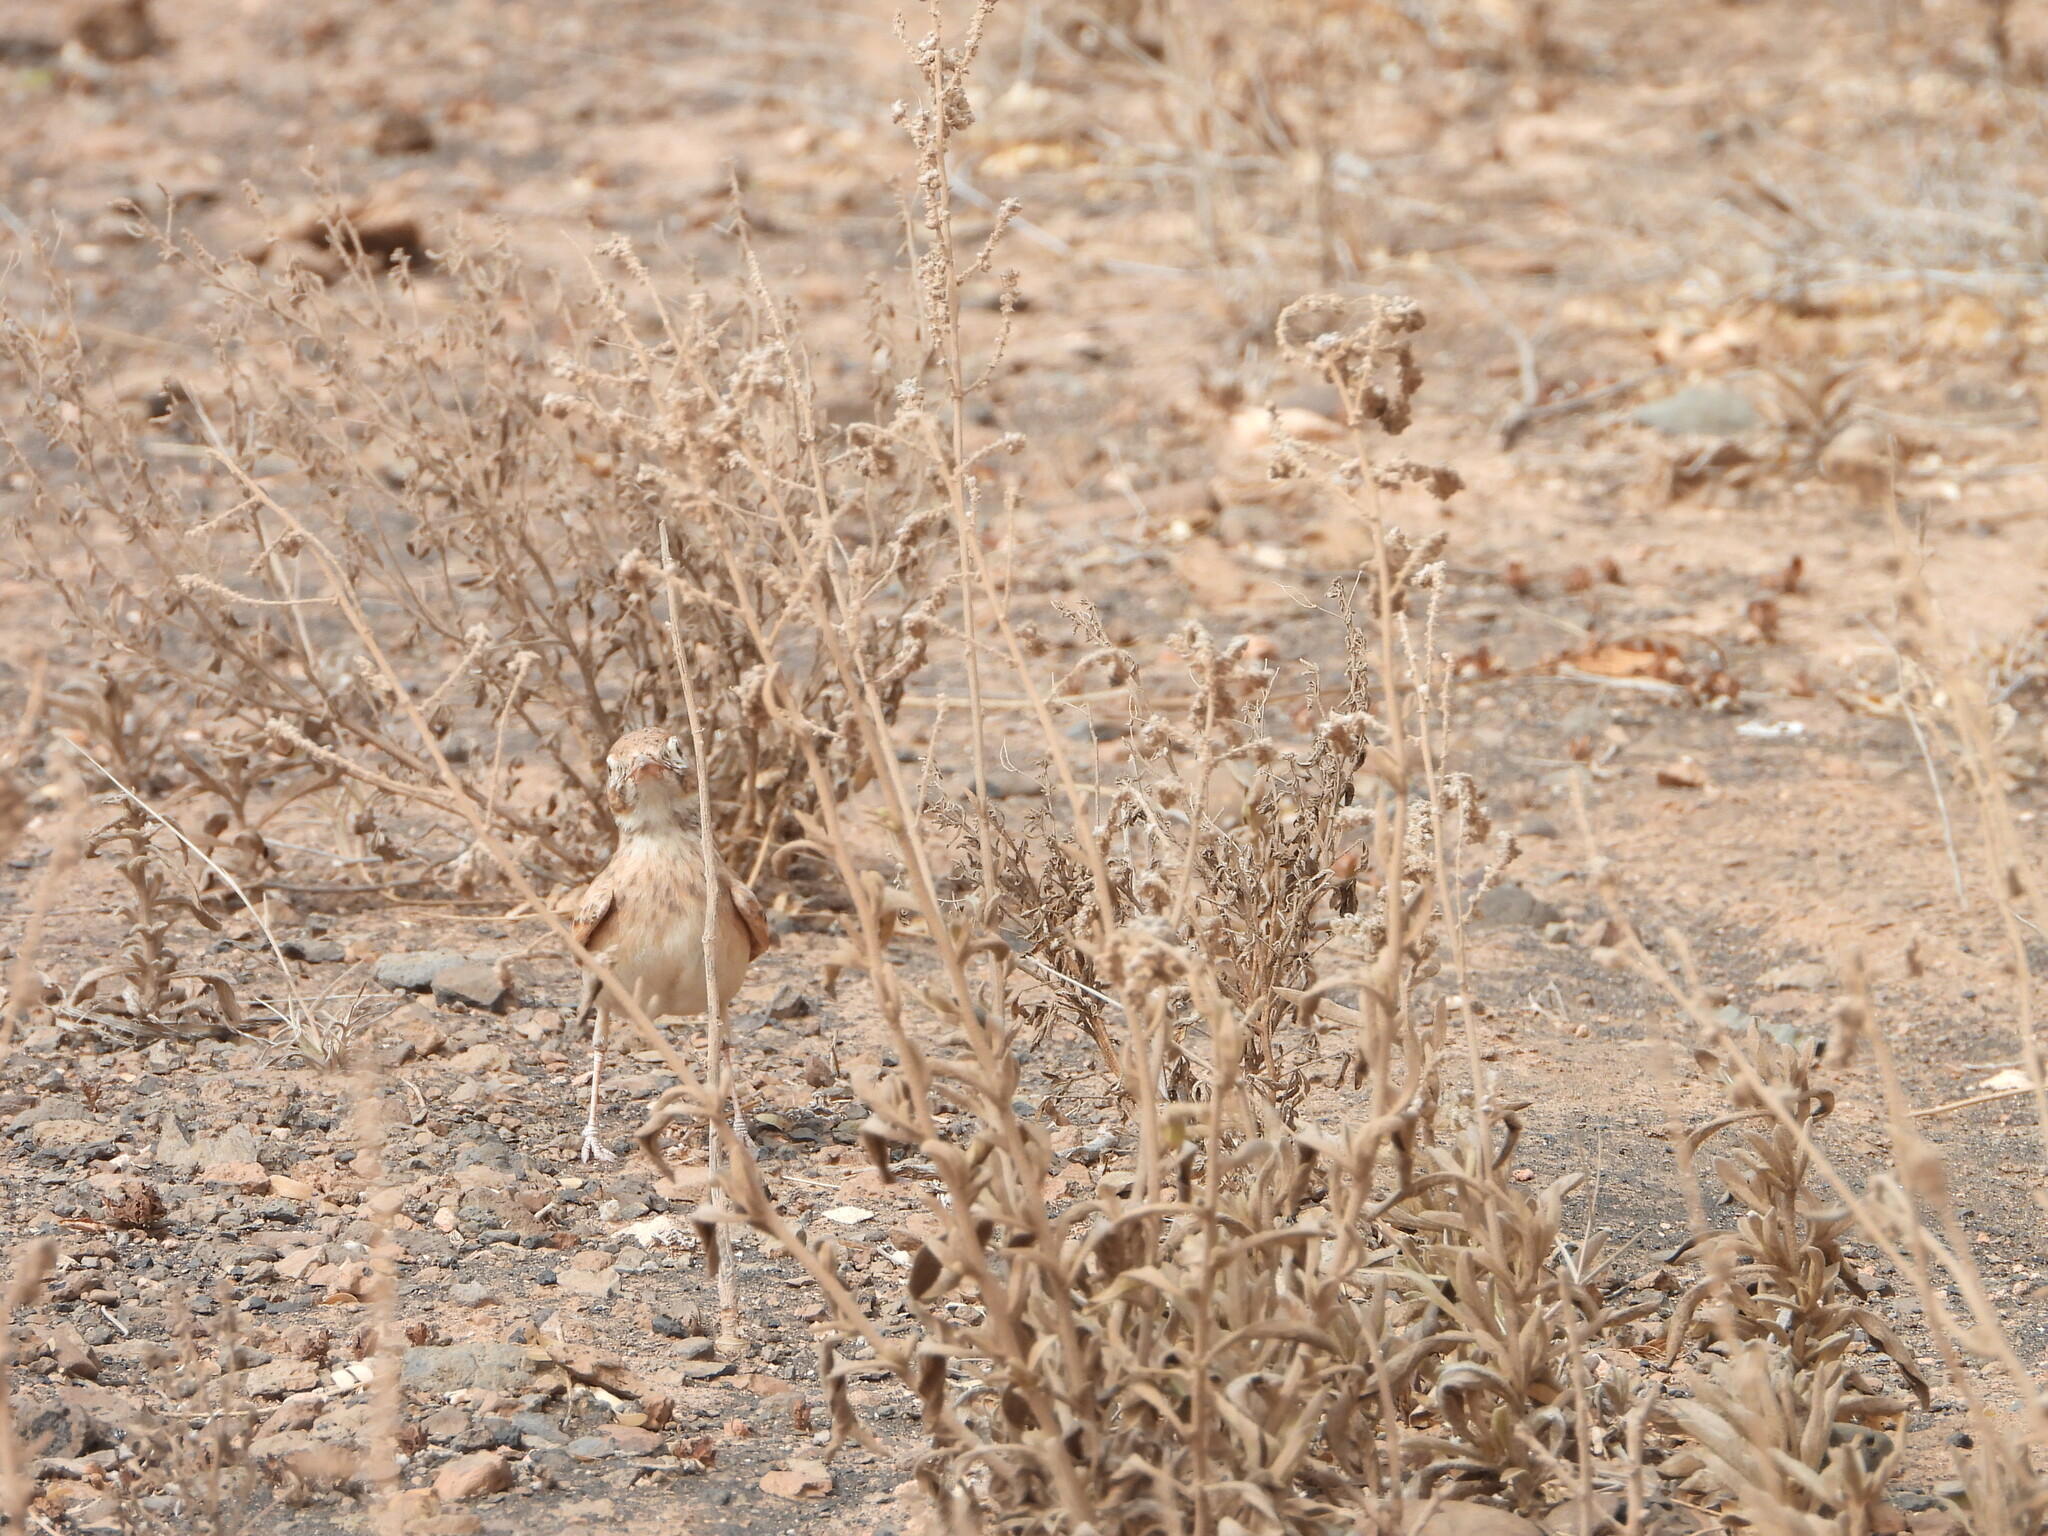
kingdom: Animalia
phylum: Chordata
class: Aves
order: Passeriformes
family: Alaudidae
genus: Ammomanes
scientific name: Ammomanes cinctura
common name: Bar-tailed lark
